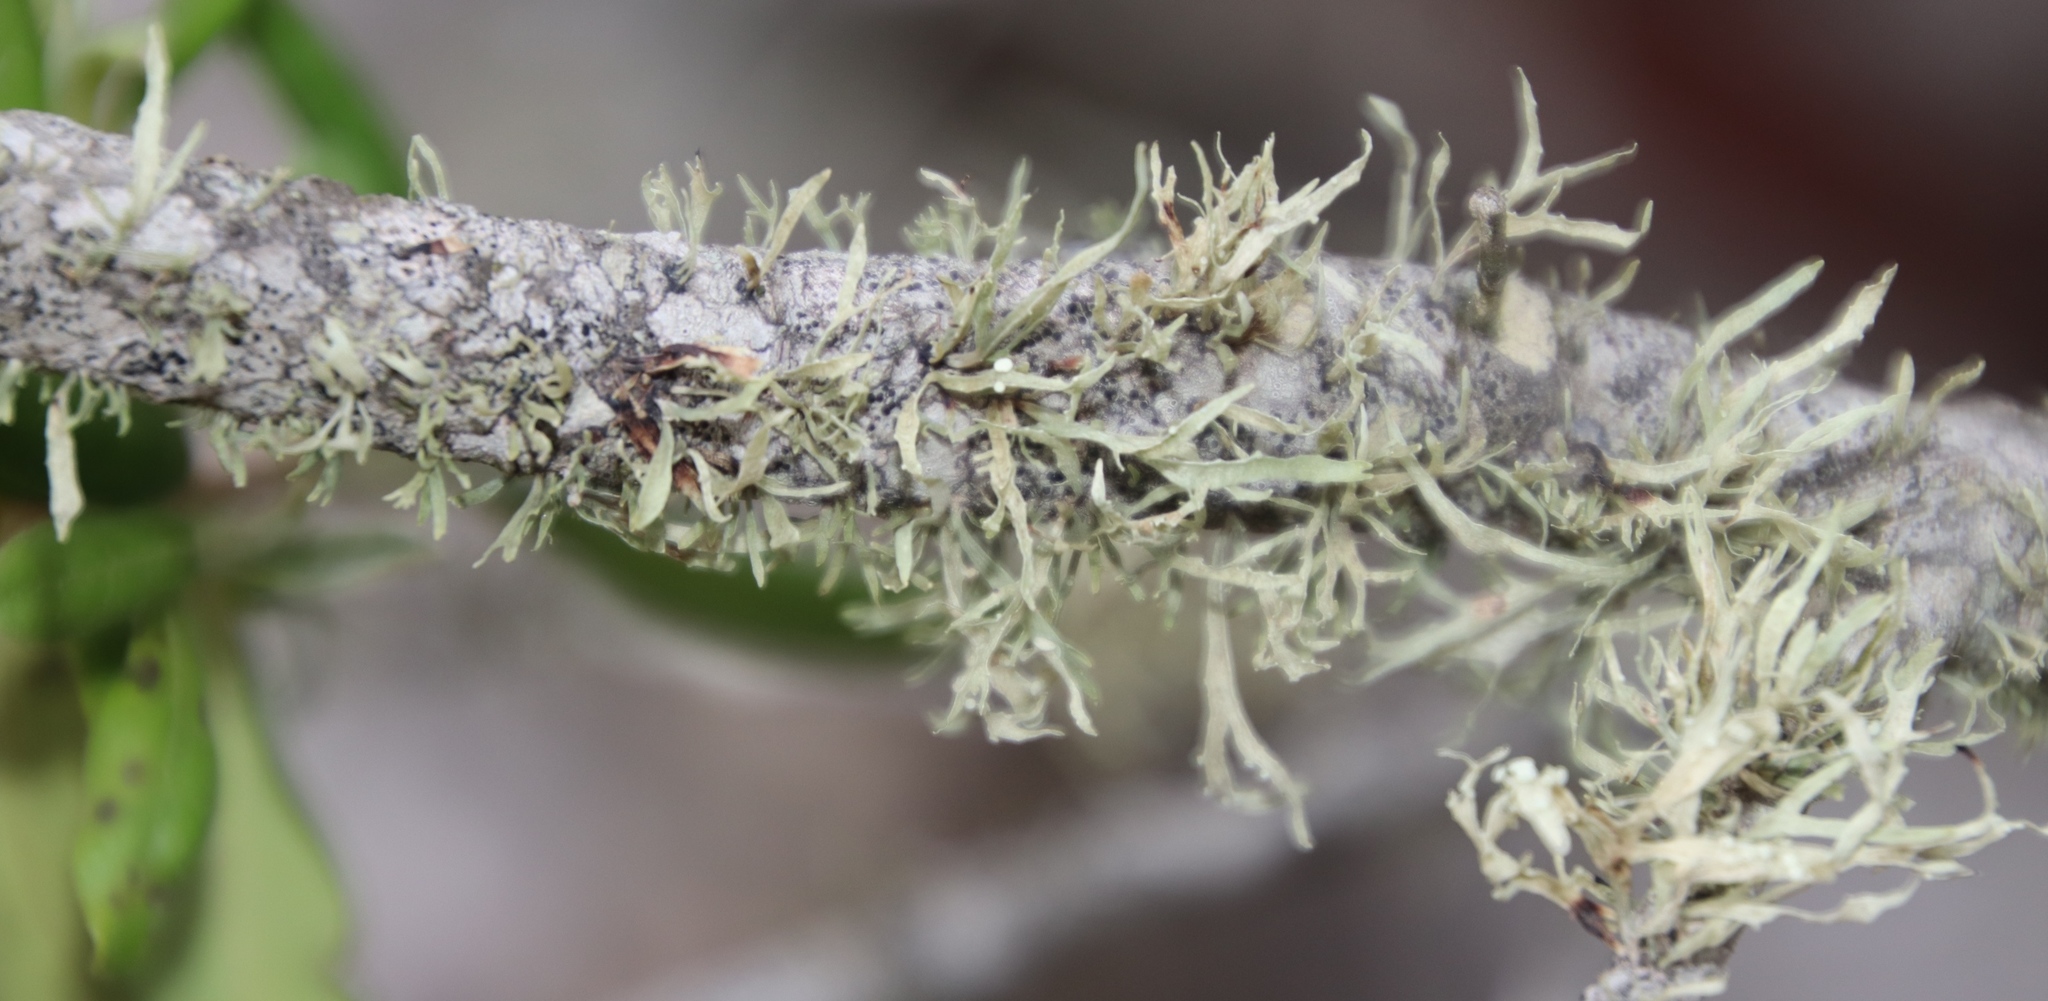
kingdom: Fungi
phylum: Ascomycota
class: Lecanoromycetes
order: Lecanorales
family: Ramalinaceae
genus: Ramalina
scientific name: Ramalina celastri
